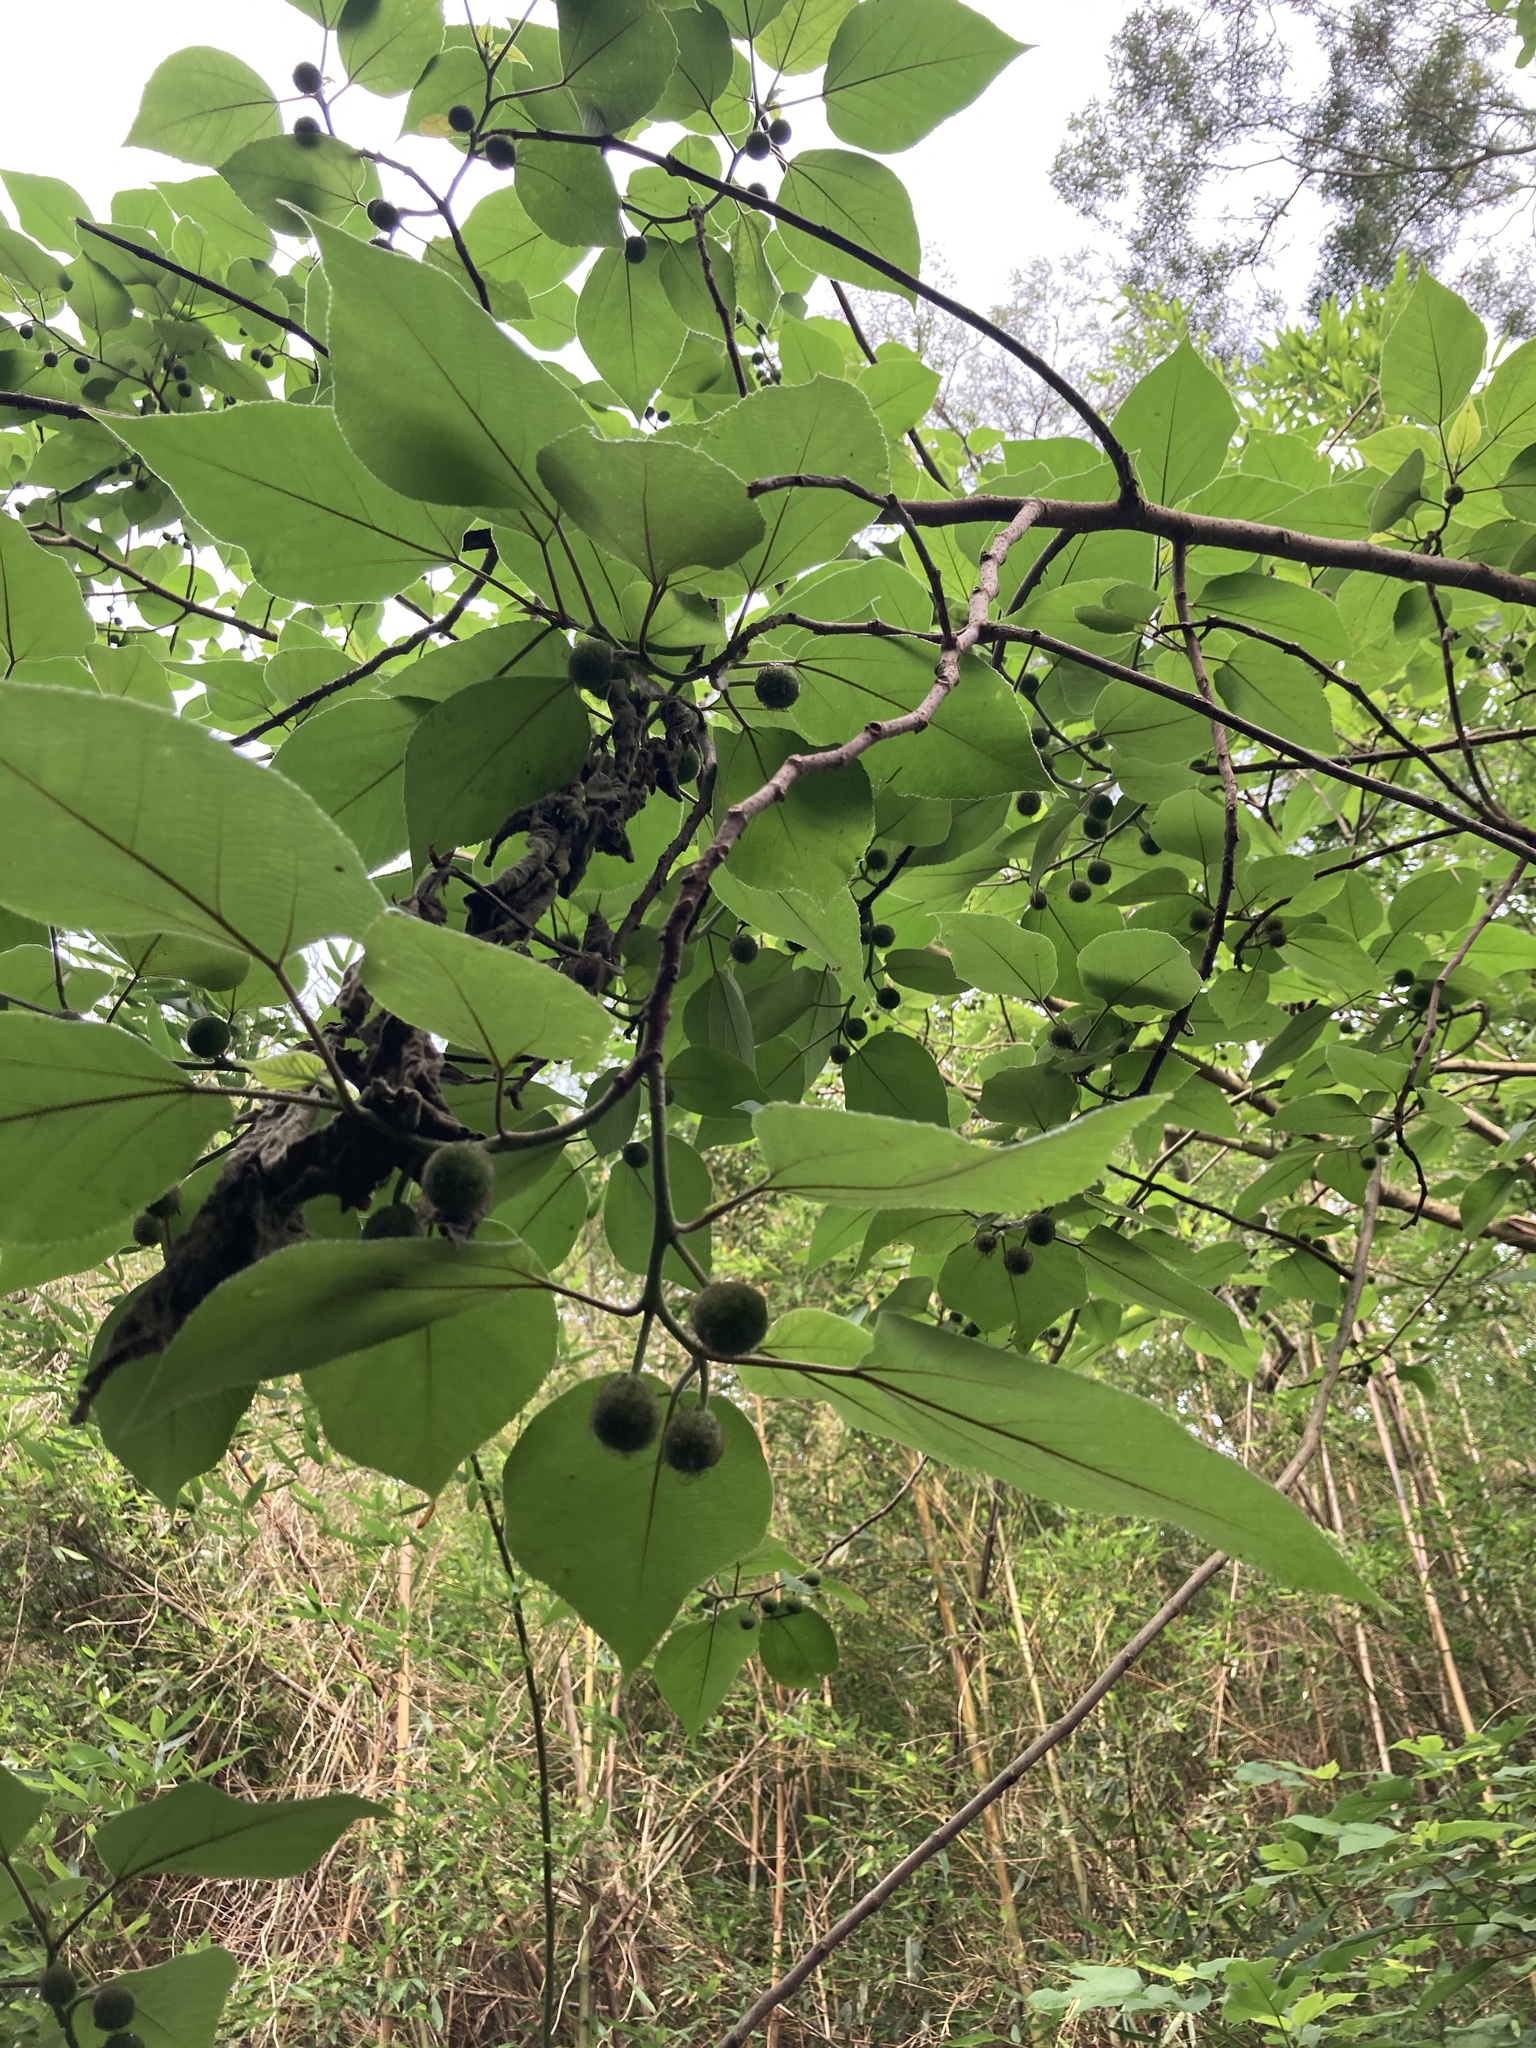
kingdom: Plantae
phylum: Tracheophyta
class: Magnoliopsida
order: Rosales
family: Moraceae
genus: Broussonetia
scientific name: Broussonetia papyrifera
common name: Paper mulberry
